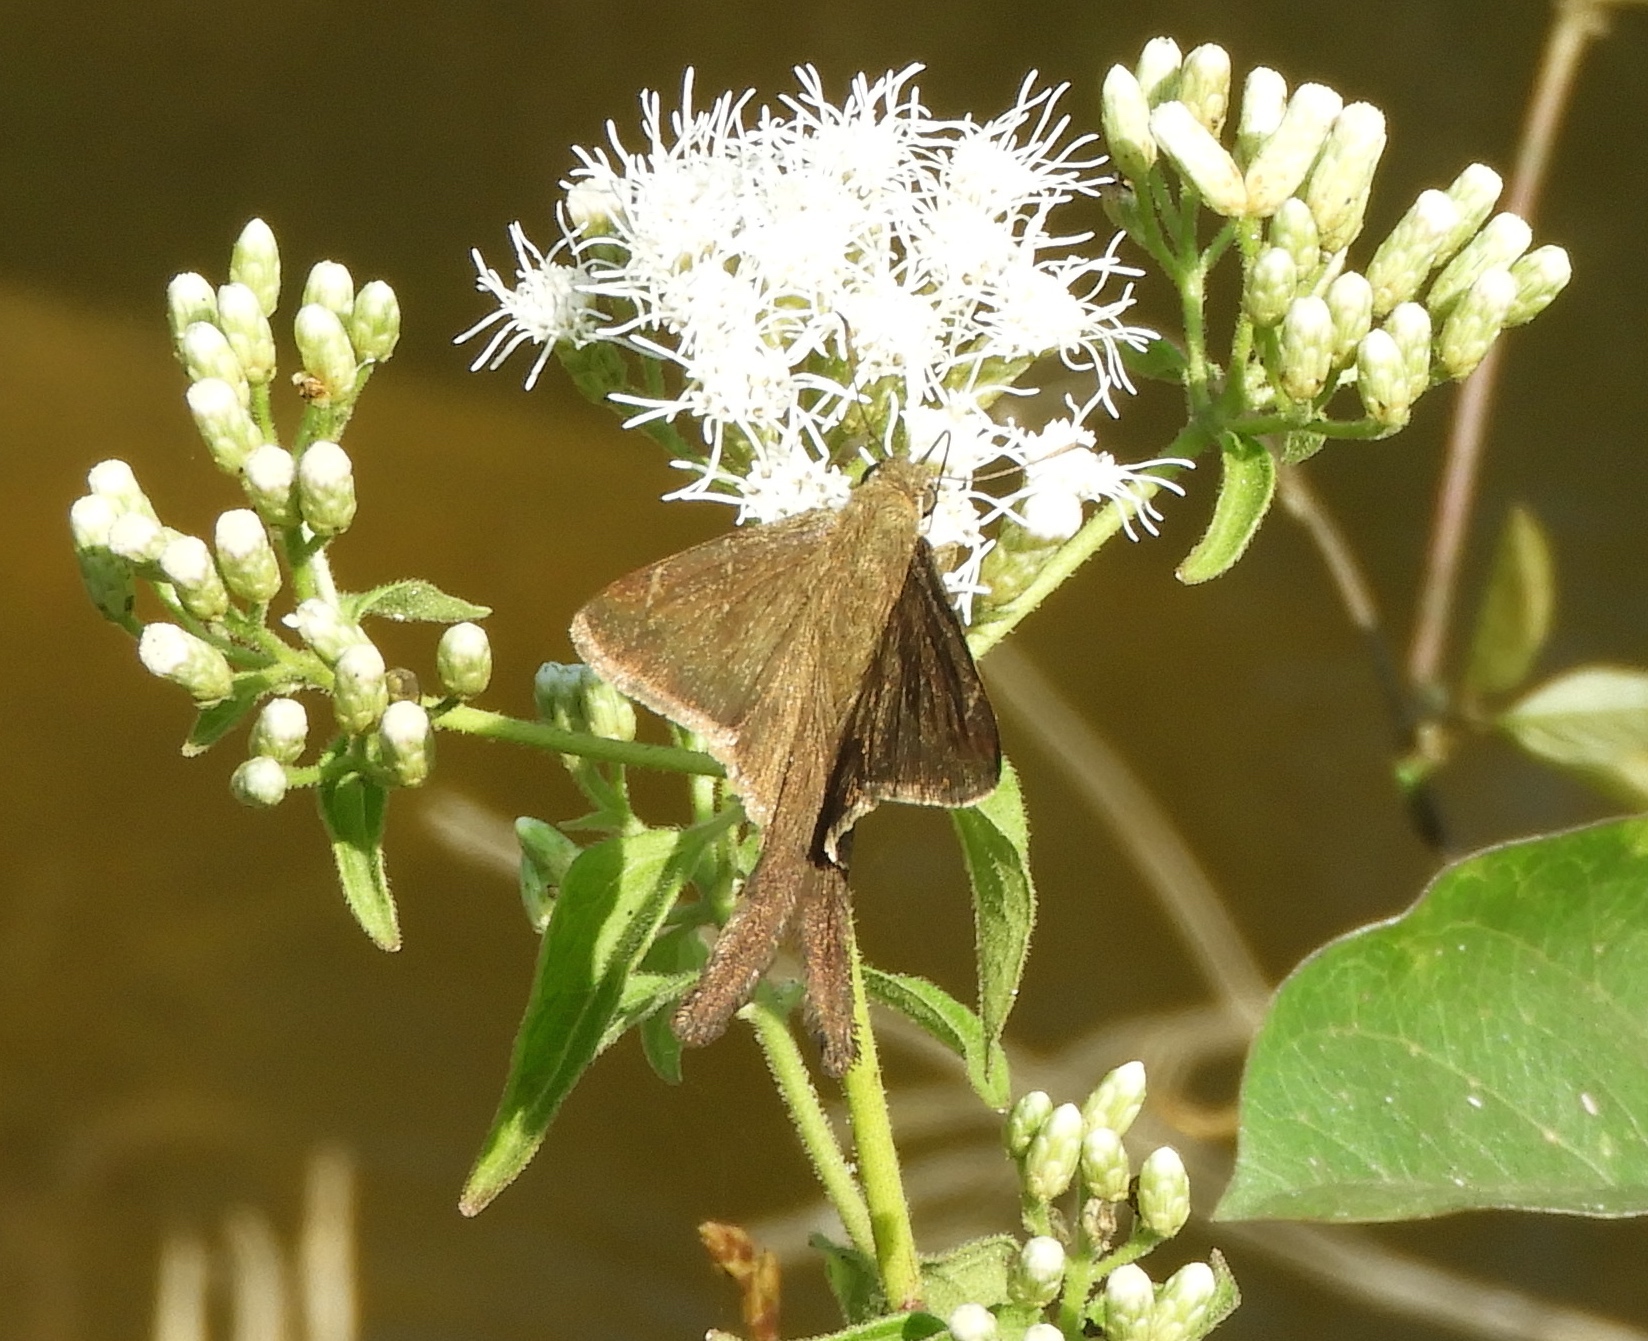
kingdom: Animalia
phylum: Arthropoda
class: Insecta
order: Lepidoptera
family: Hesperiidae
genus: Urbanus
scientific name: Urbanus procne
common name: Brown longtail
